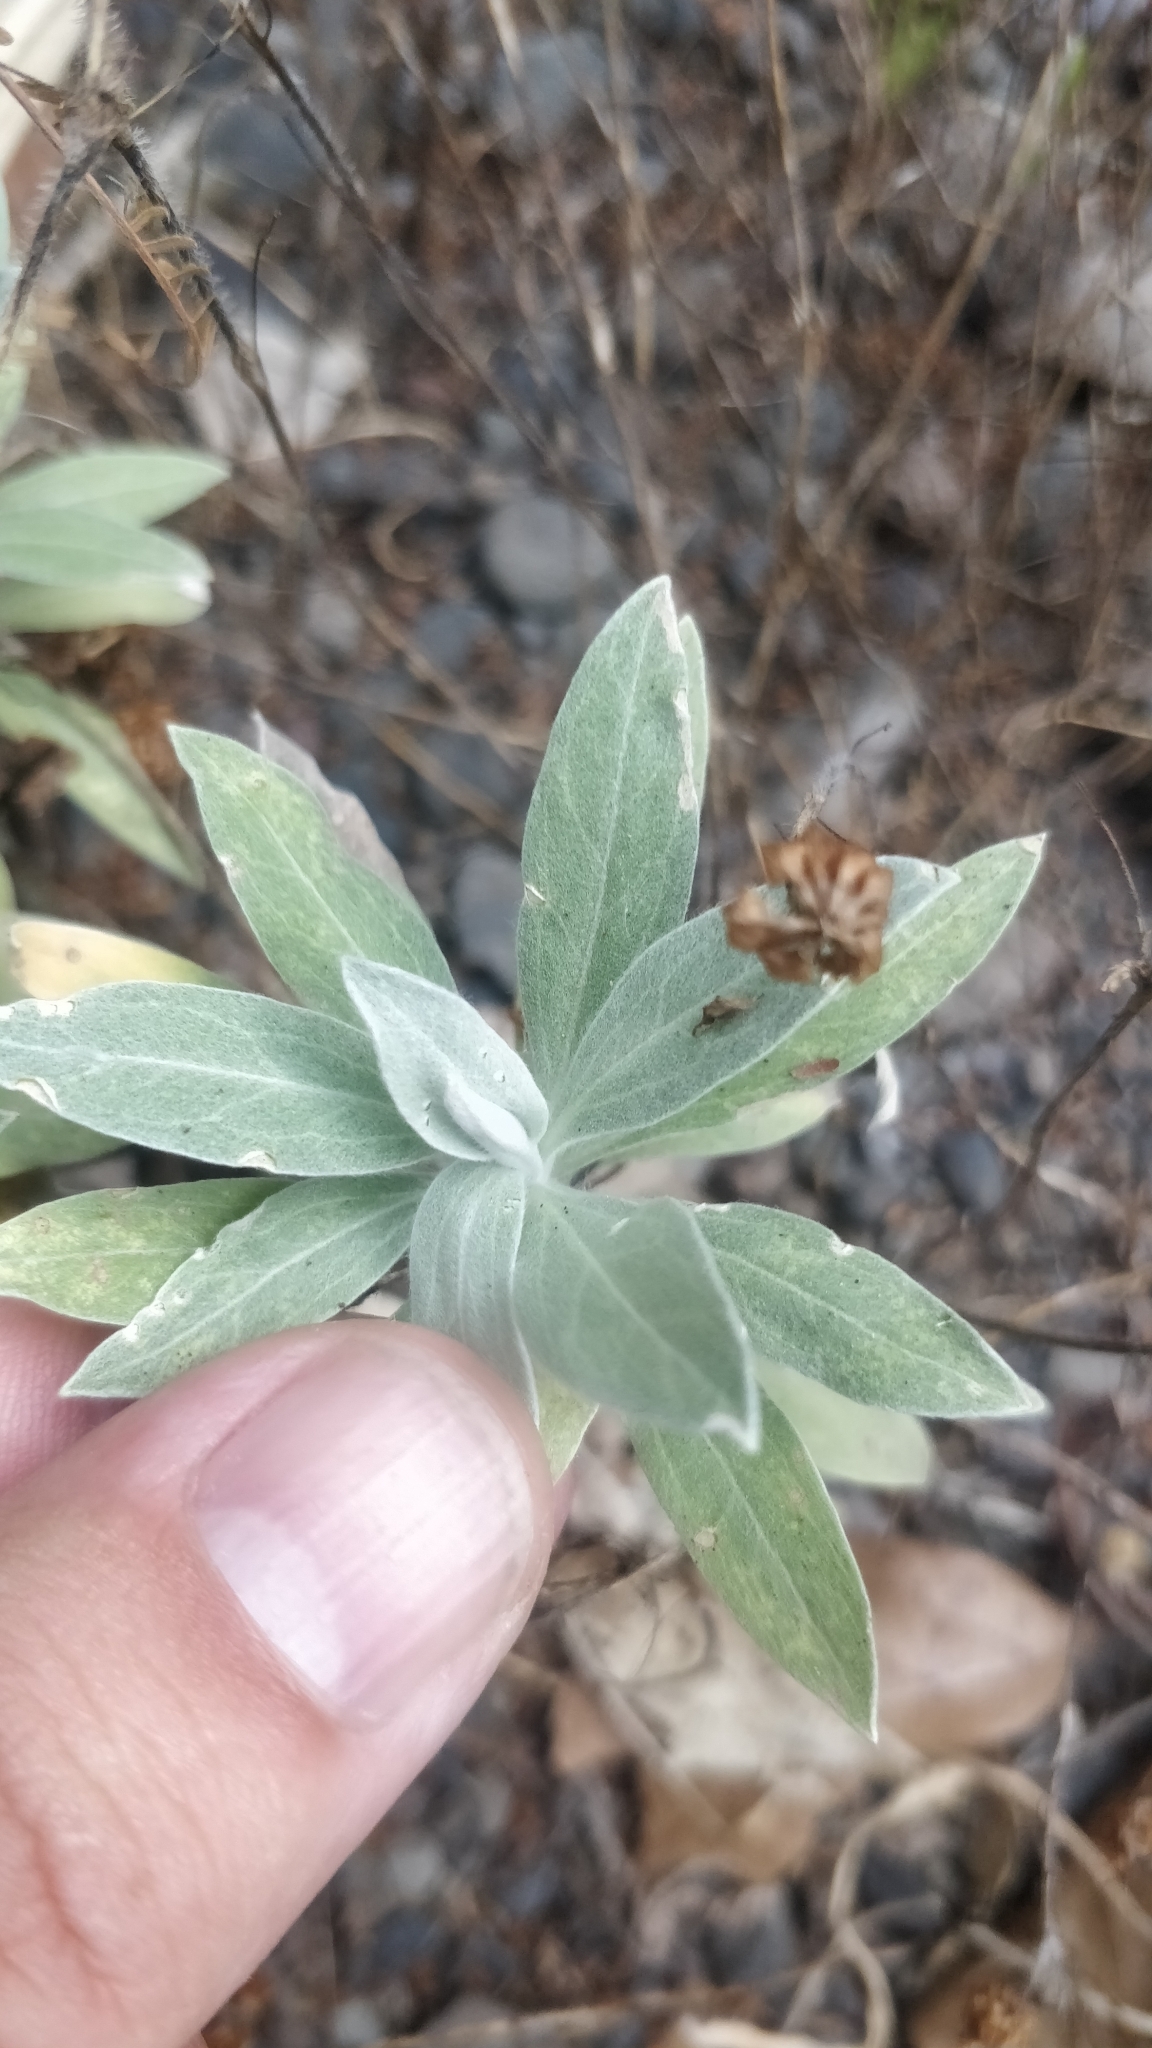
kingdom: Plantae
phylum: Tracheophyta
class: Magnoliopsida
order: Asterales
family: Asteraceae
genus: Helichrysum
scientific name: Helichrysum melaleucum
